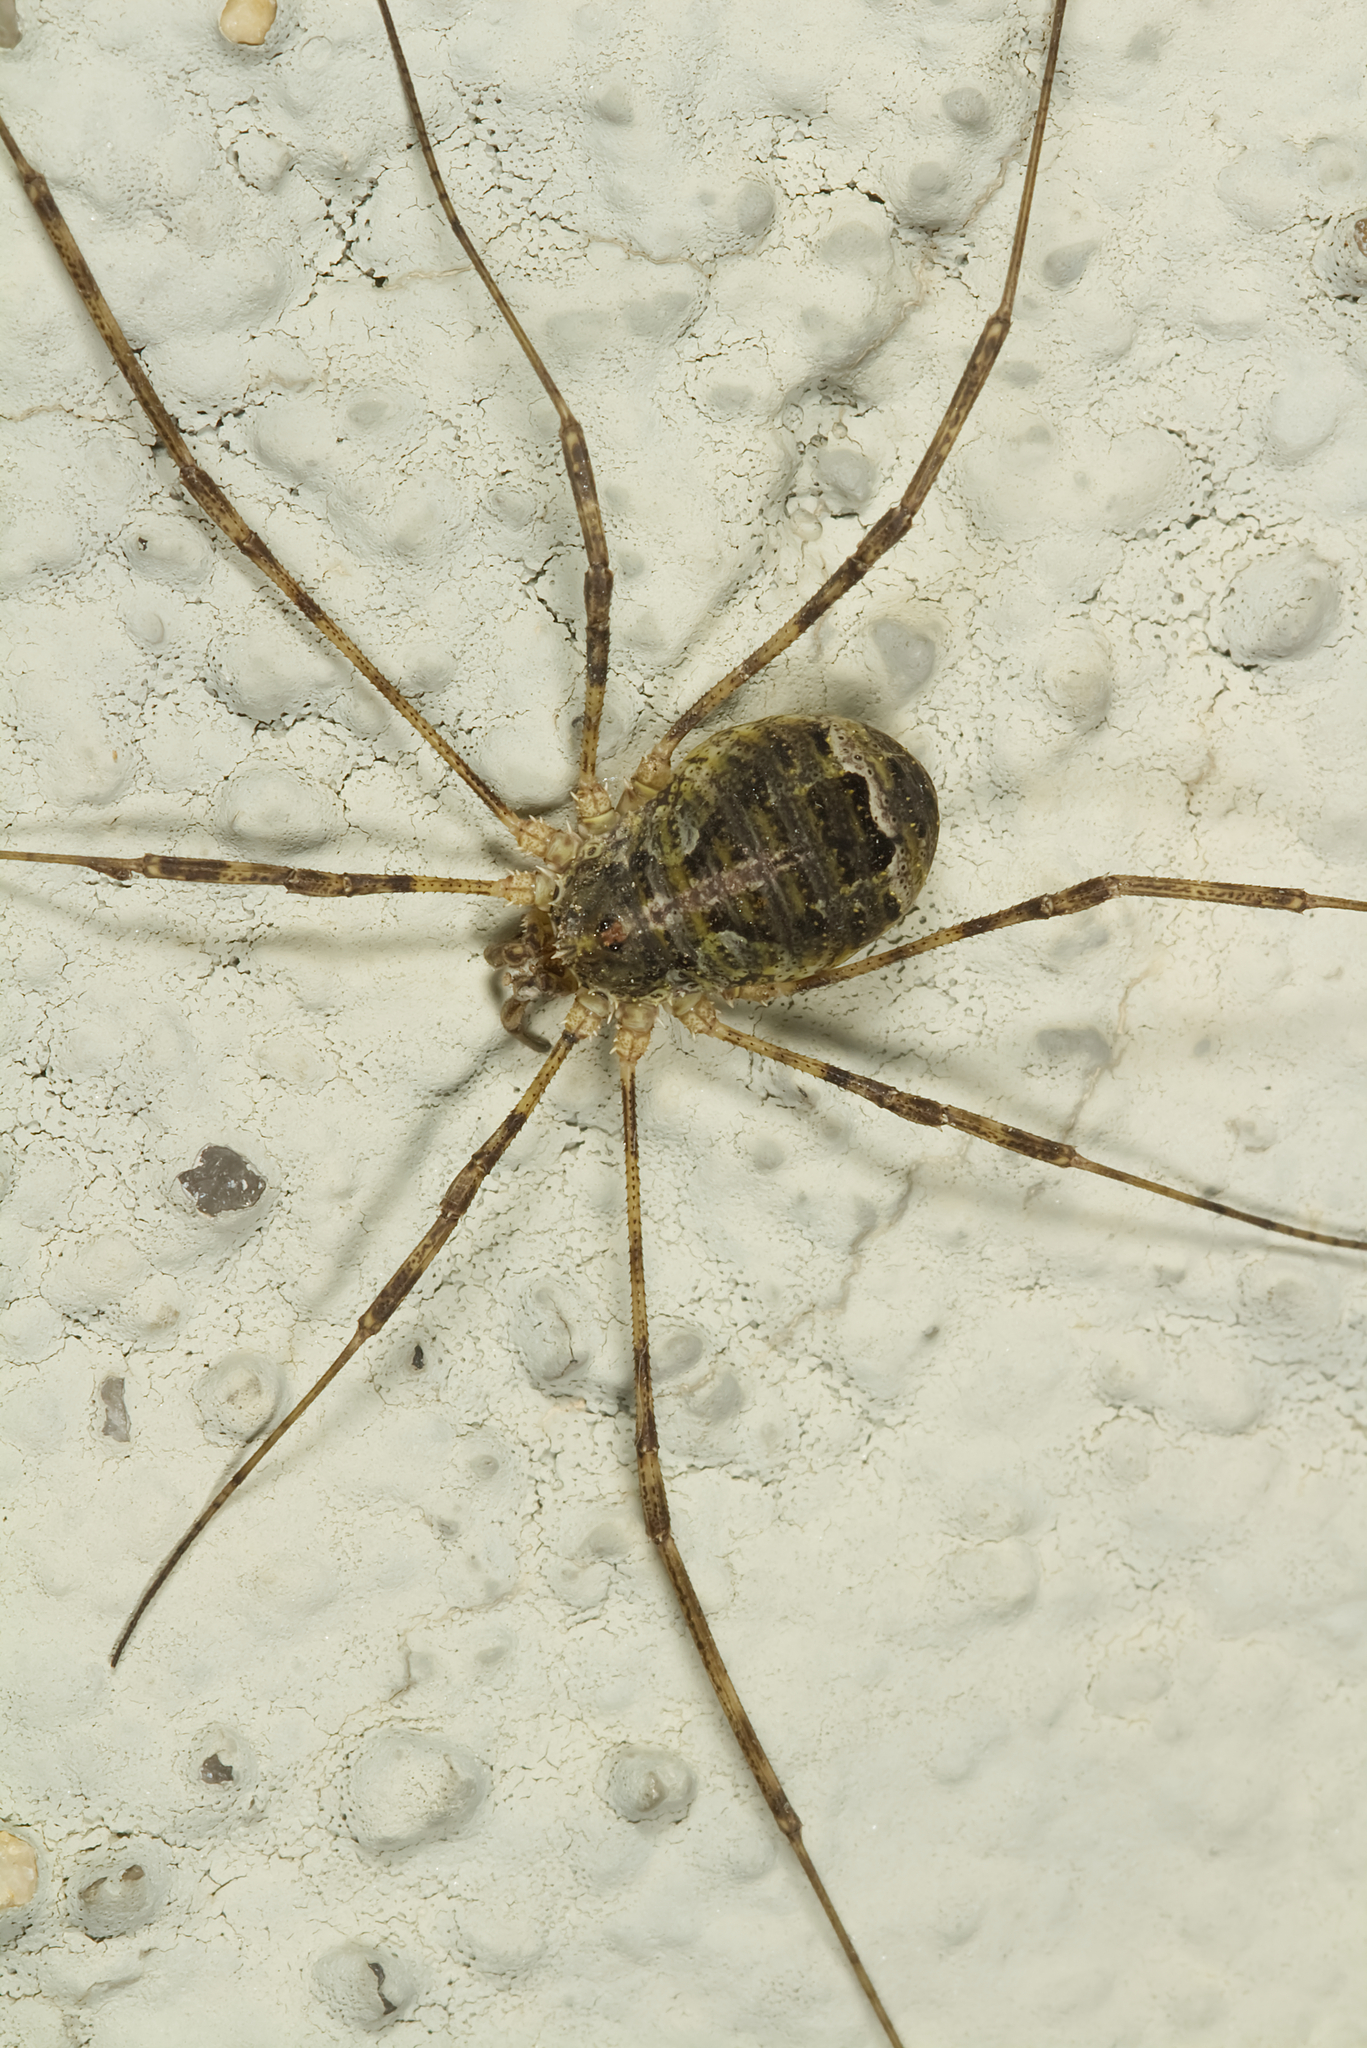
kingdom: Animalia
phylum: Arthropoda
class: Arachnida
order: Opiliones
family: Phalangiidae
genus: Lacinius
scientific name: Lacinius dentiger
